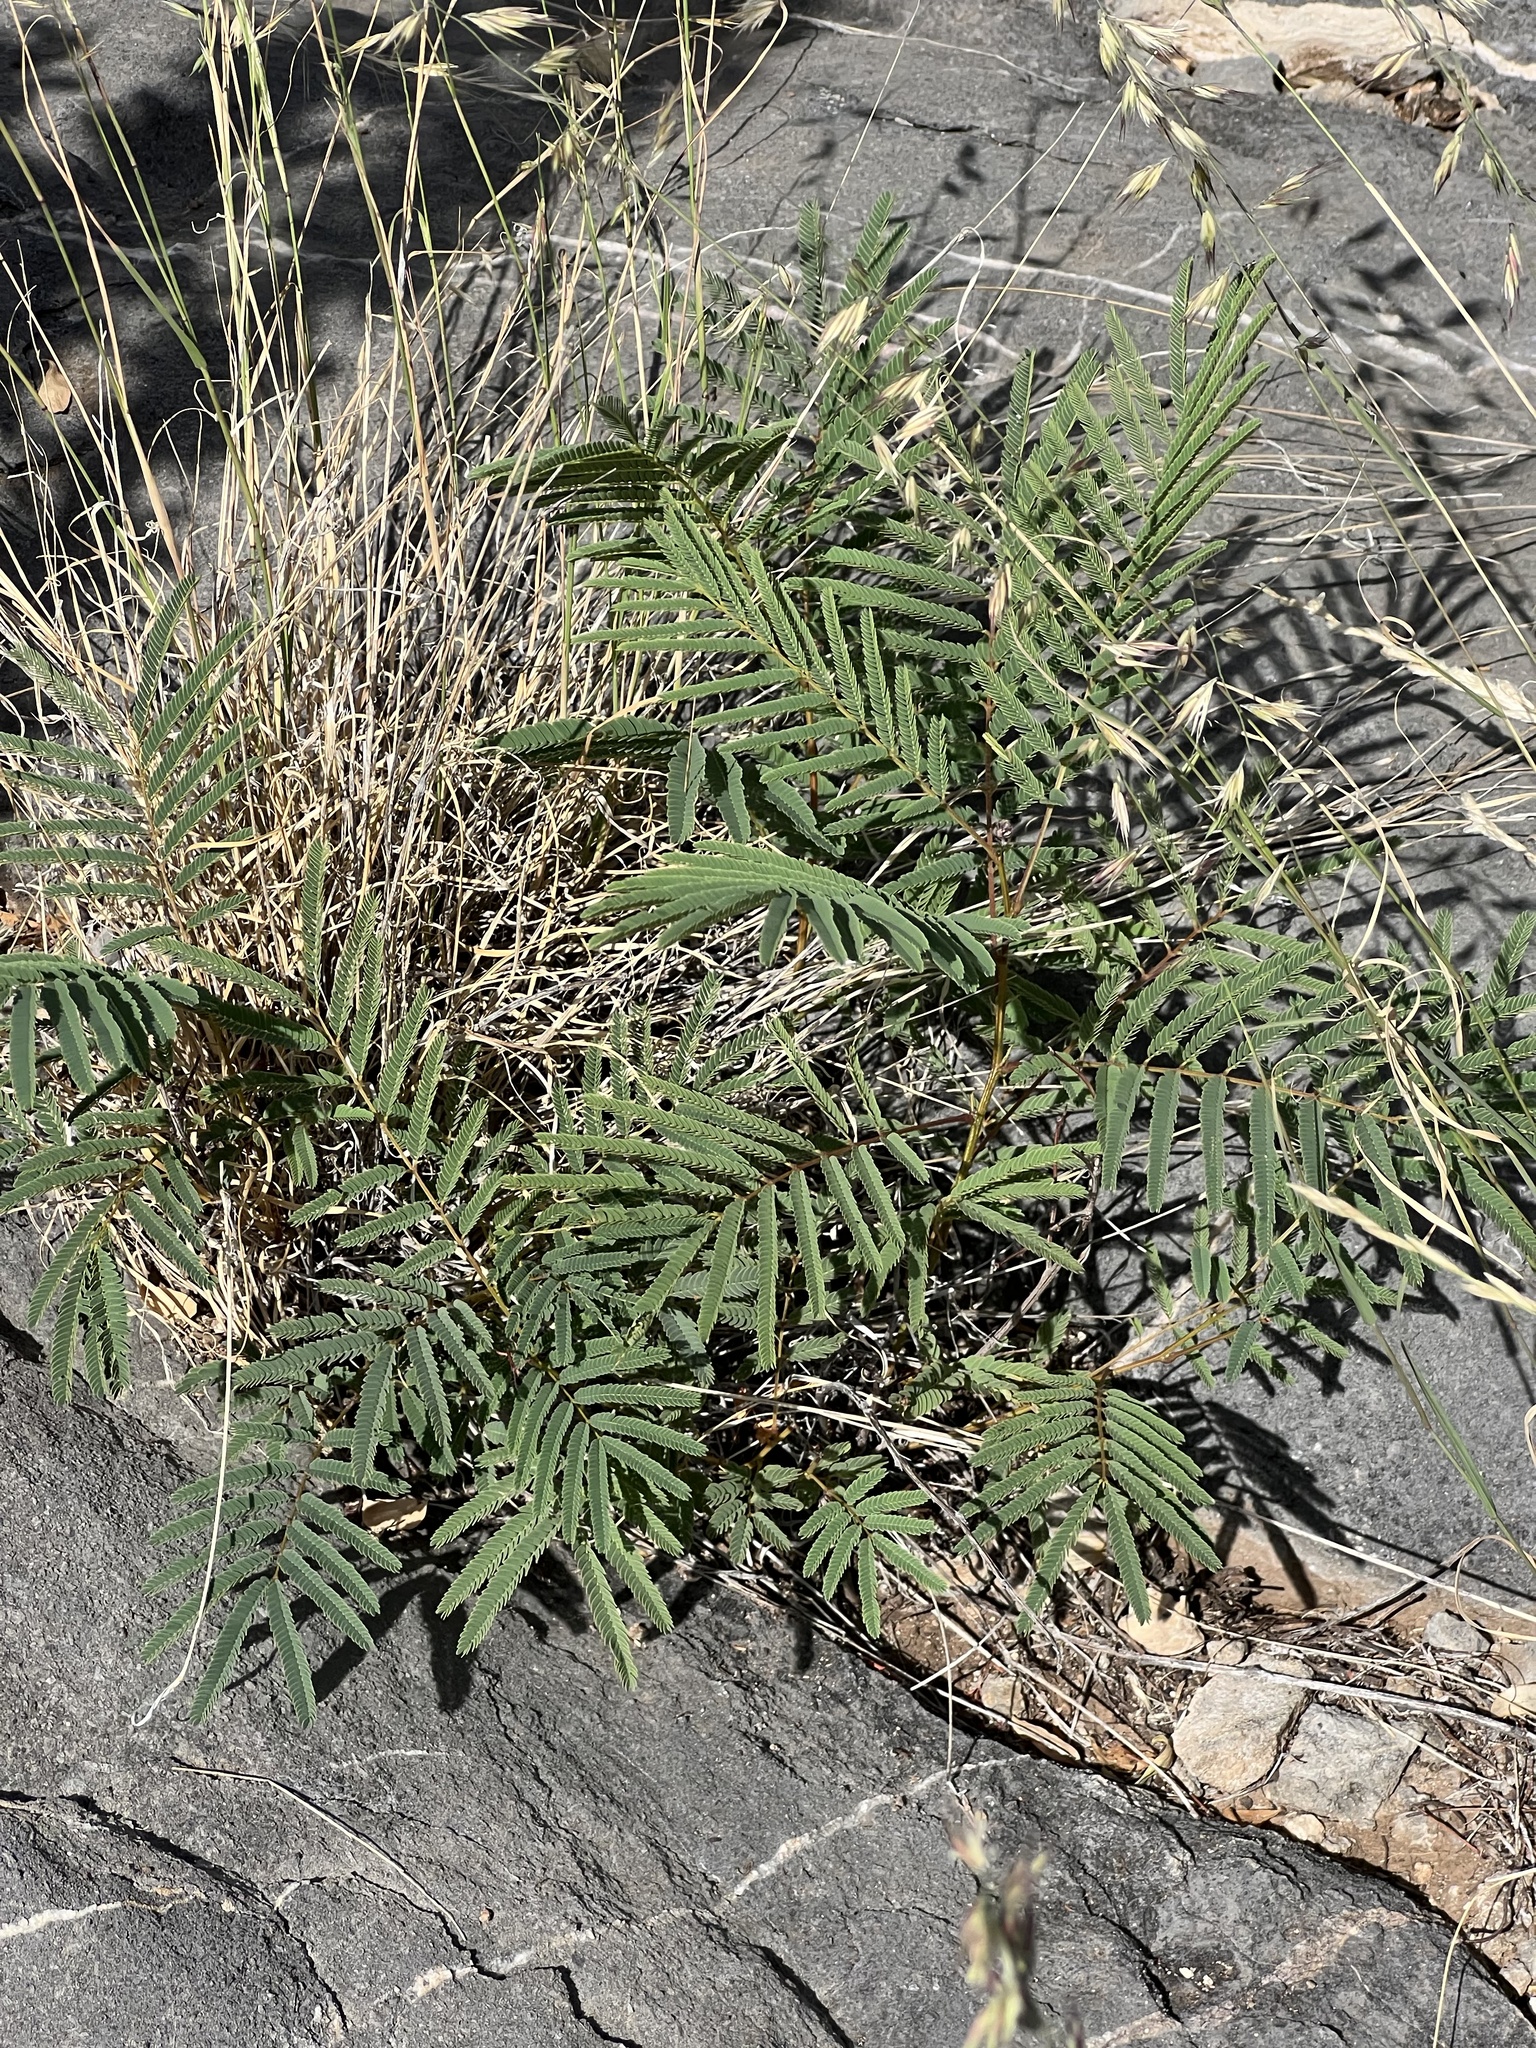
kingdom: Plantae
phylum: Tracheophyta
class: Magnoliopsida
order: Fabales
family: Fabaceae
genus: Acaciella
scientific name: Acaciella angustissima
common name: Prairie acacia
